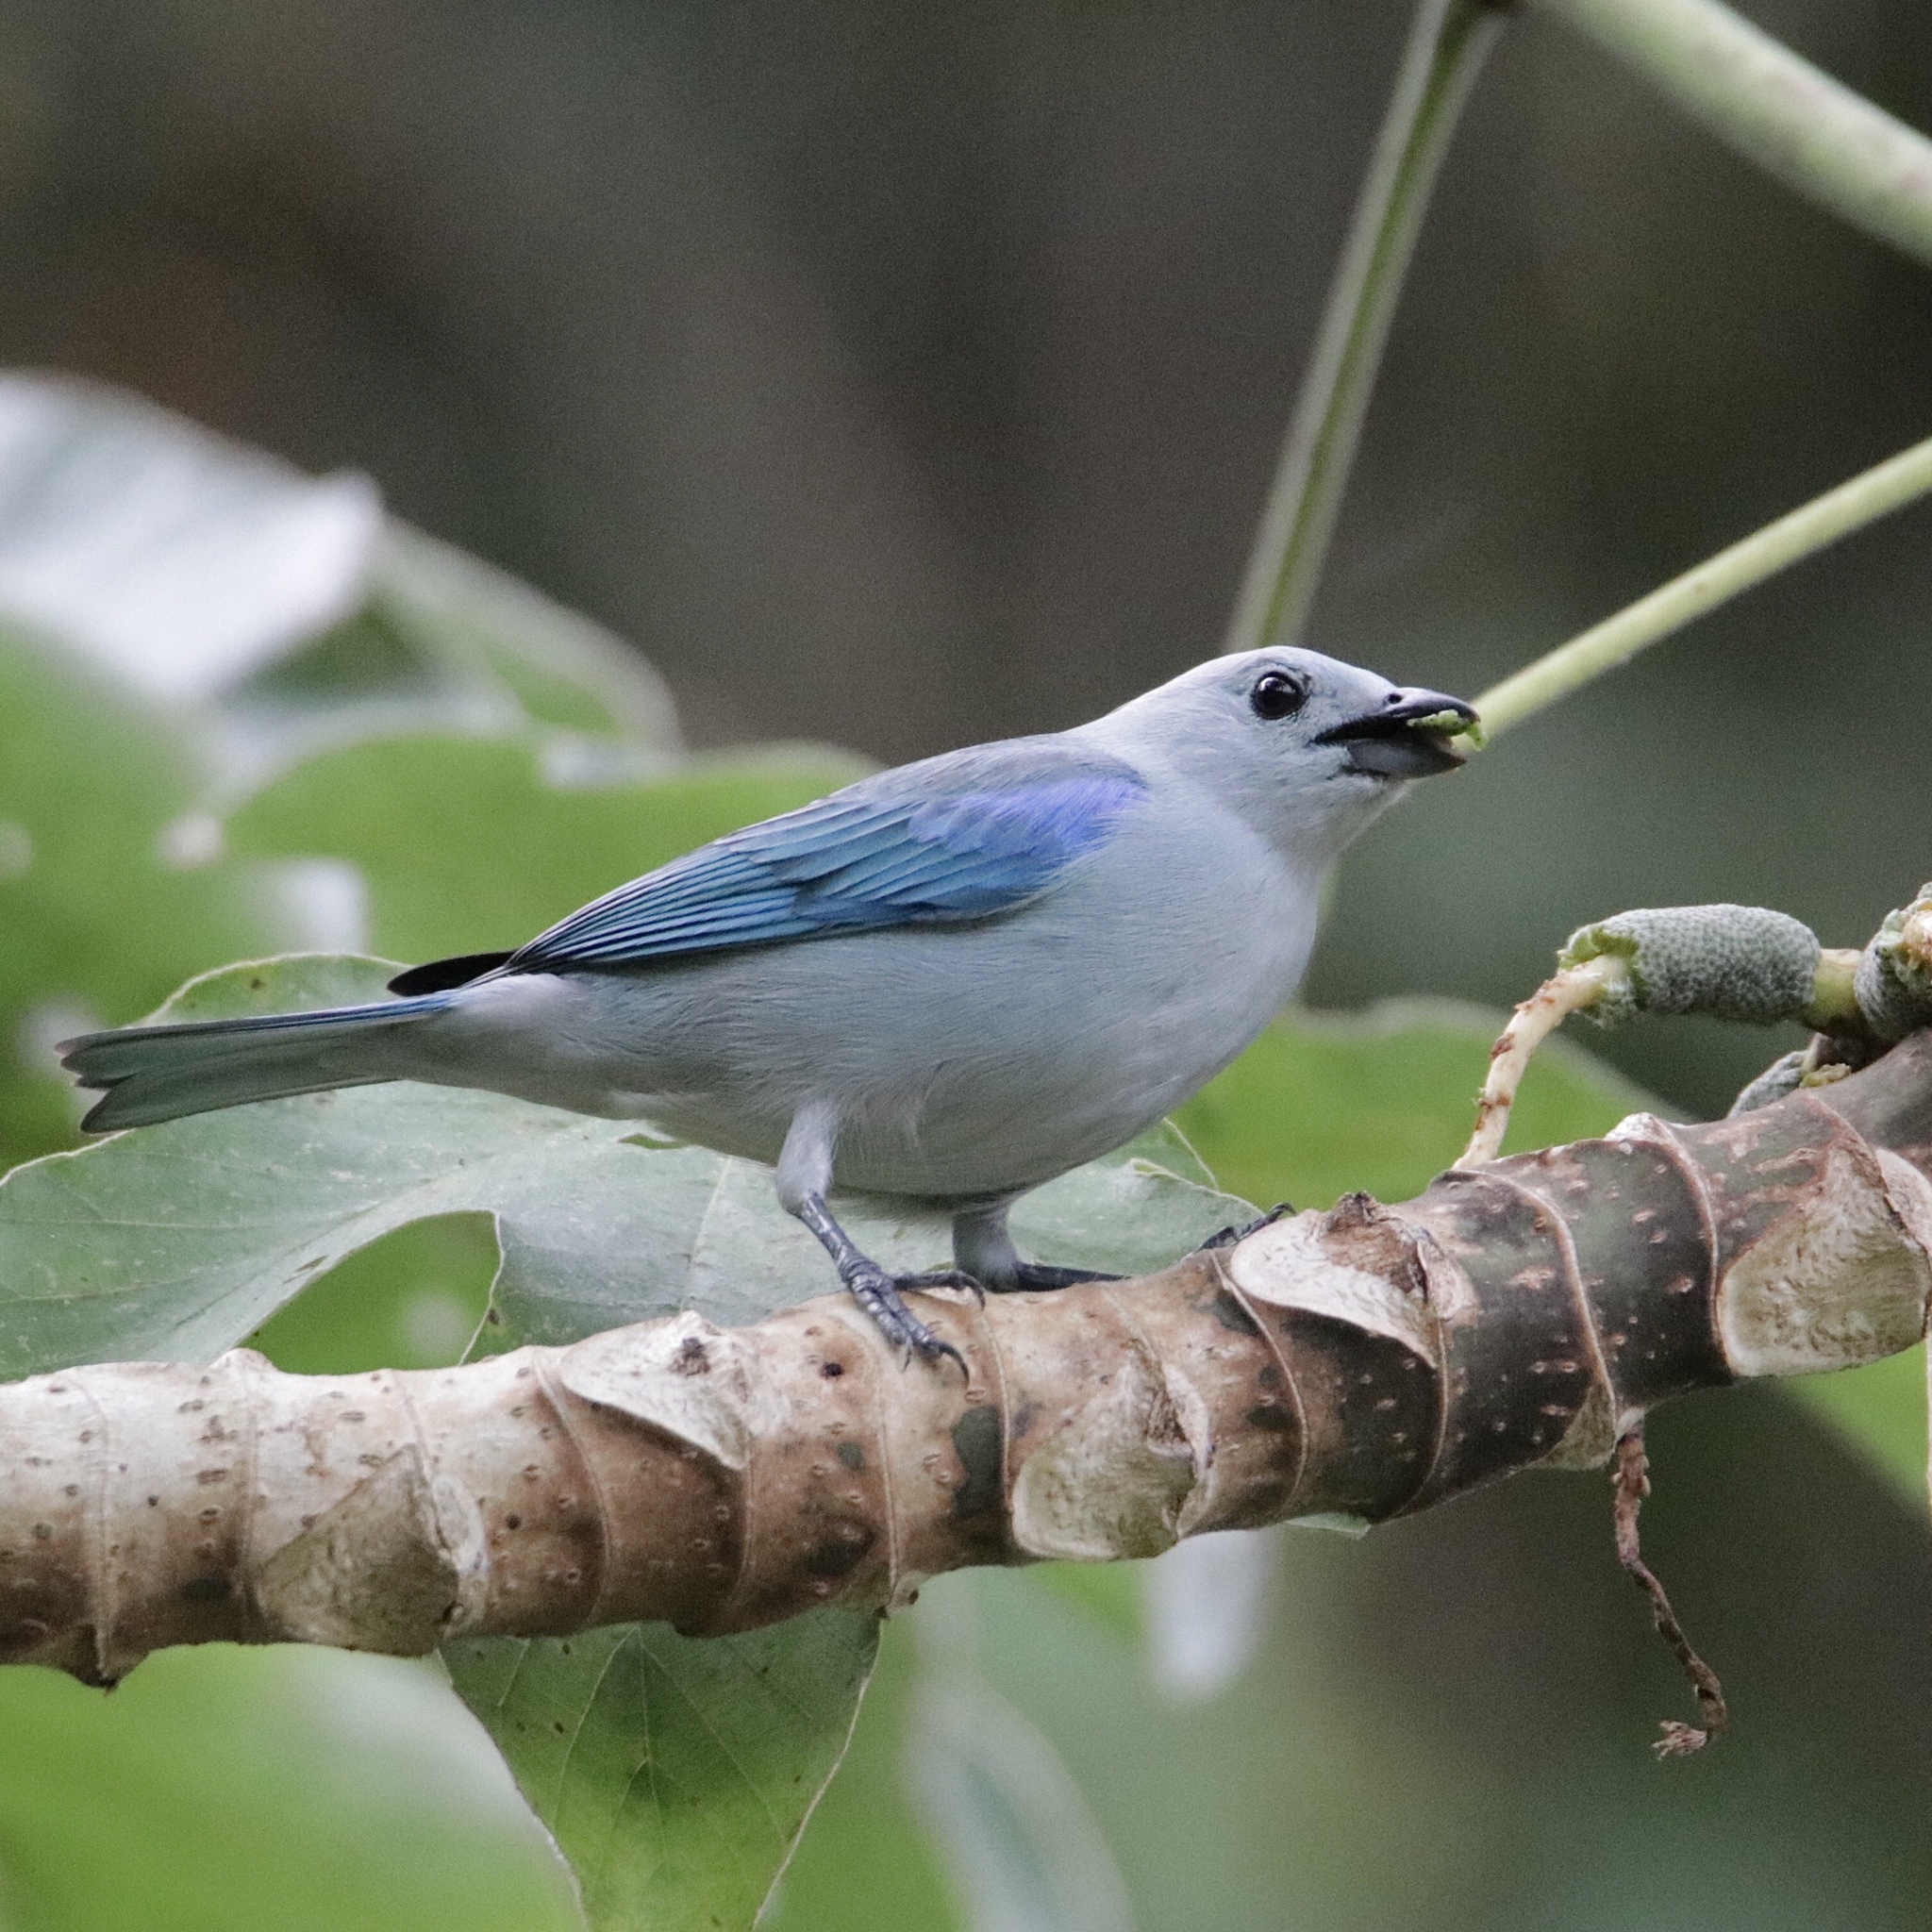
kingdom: Animalia
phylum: Chordata
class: Aves
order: Passeriformes
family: Thraupidae
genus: Thraupis
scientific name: Thraupis episcopus
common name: Blue-grey tanager
